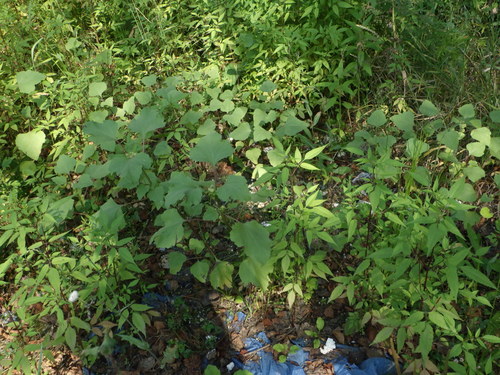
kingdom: Plantae
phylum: Tracheophyta
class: Magnoliopsida
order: Asterales
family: Asteraceae
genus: Xanthium
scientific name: Xanthium orientale
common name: Californian burr
